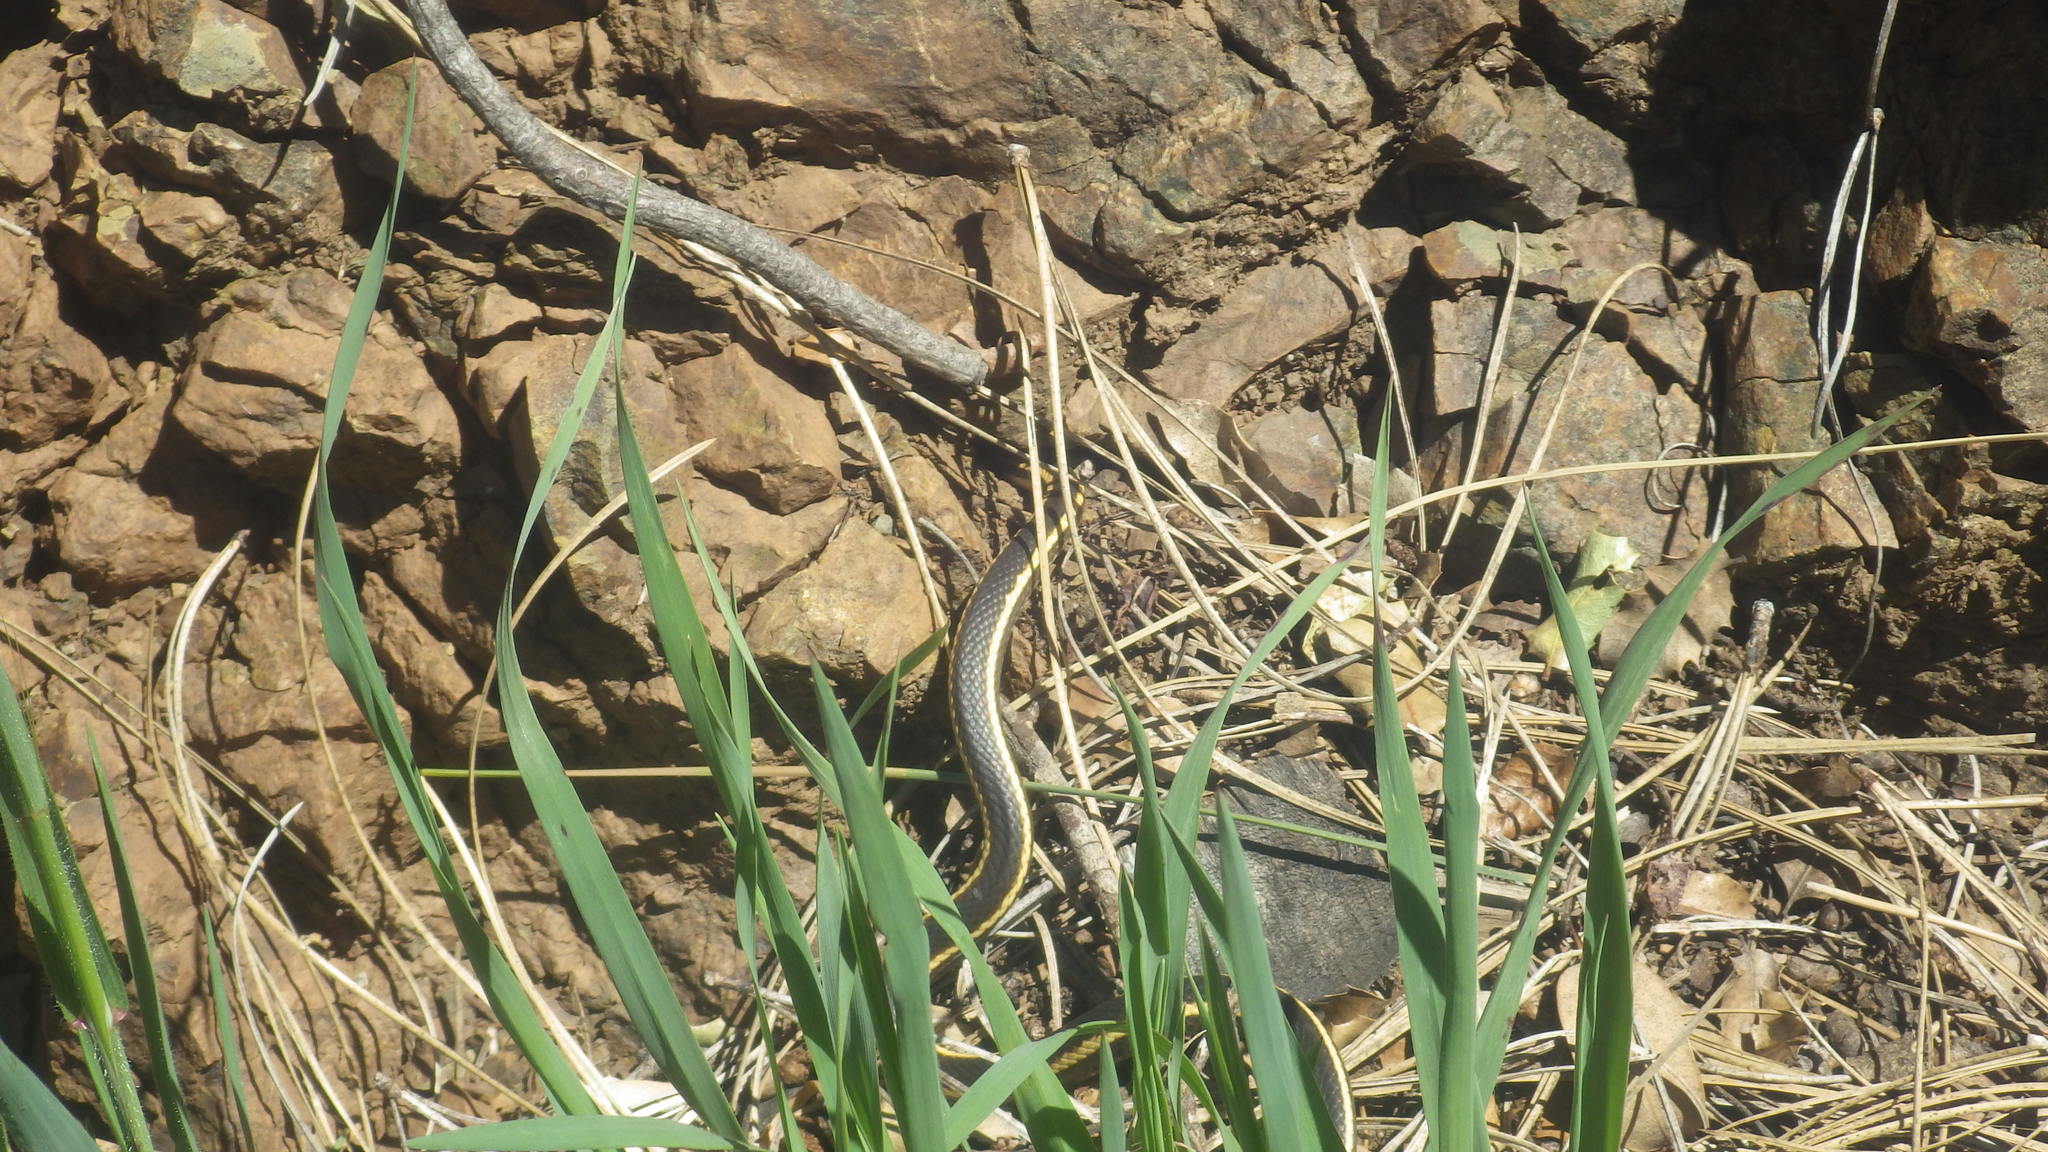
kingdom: Animalia
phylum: Chordata
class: Squamata
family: Colubridae
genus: Masticophis
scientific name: Masticophis lateralis
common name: Striped racer
